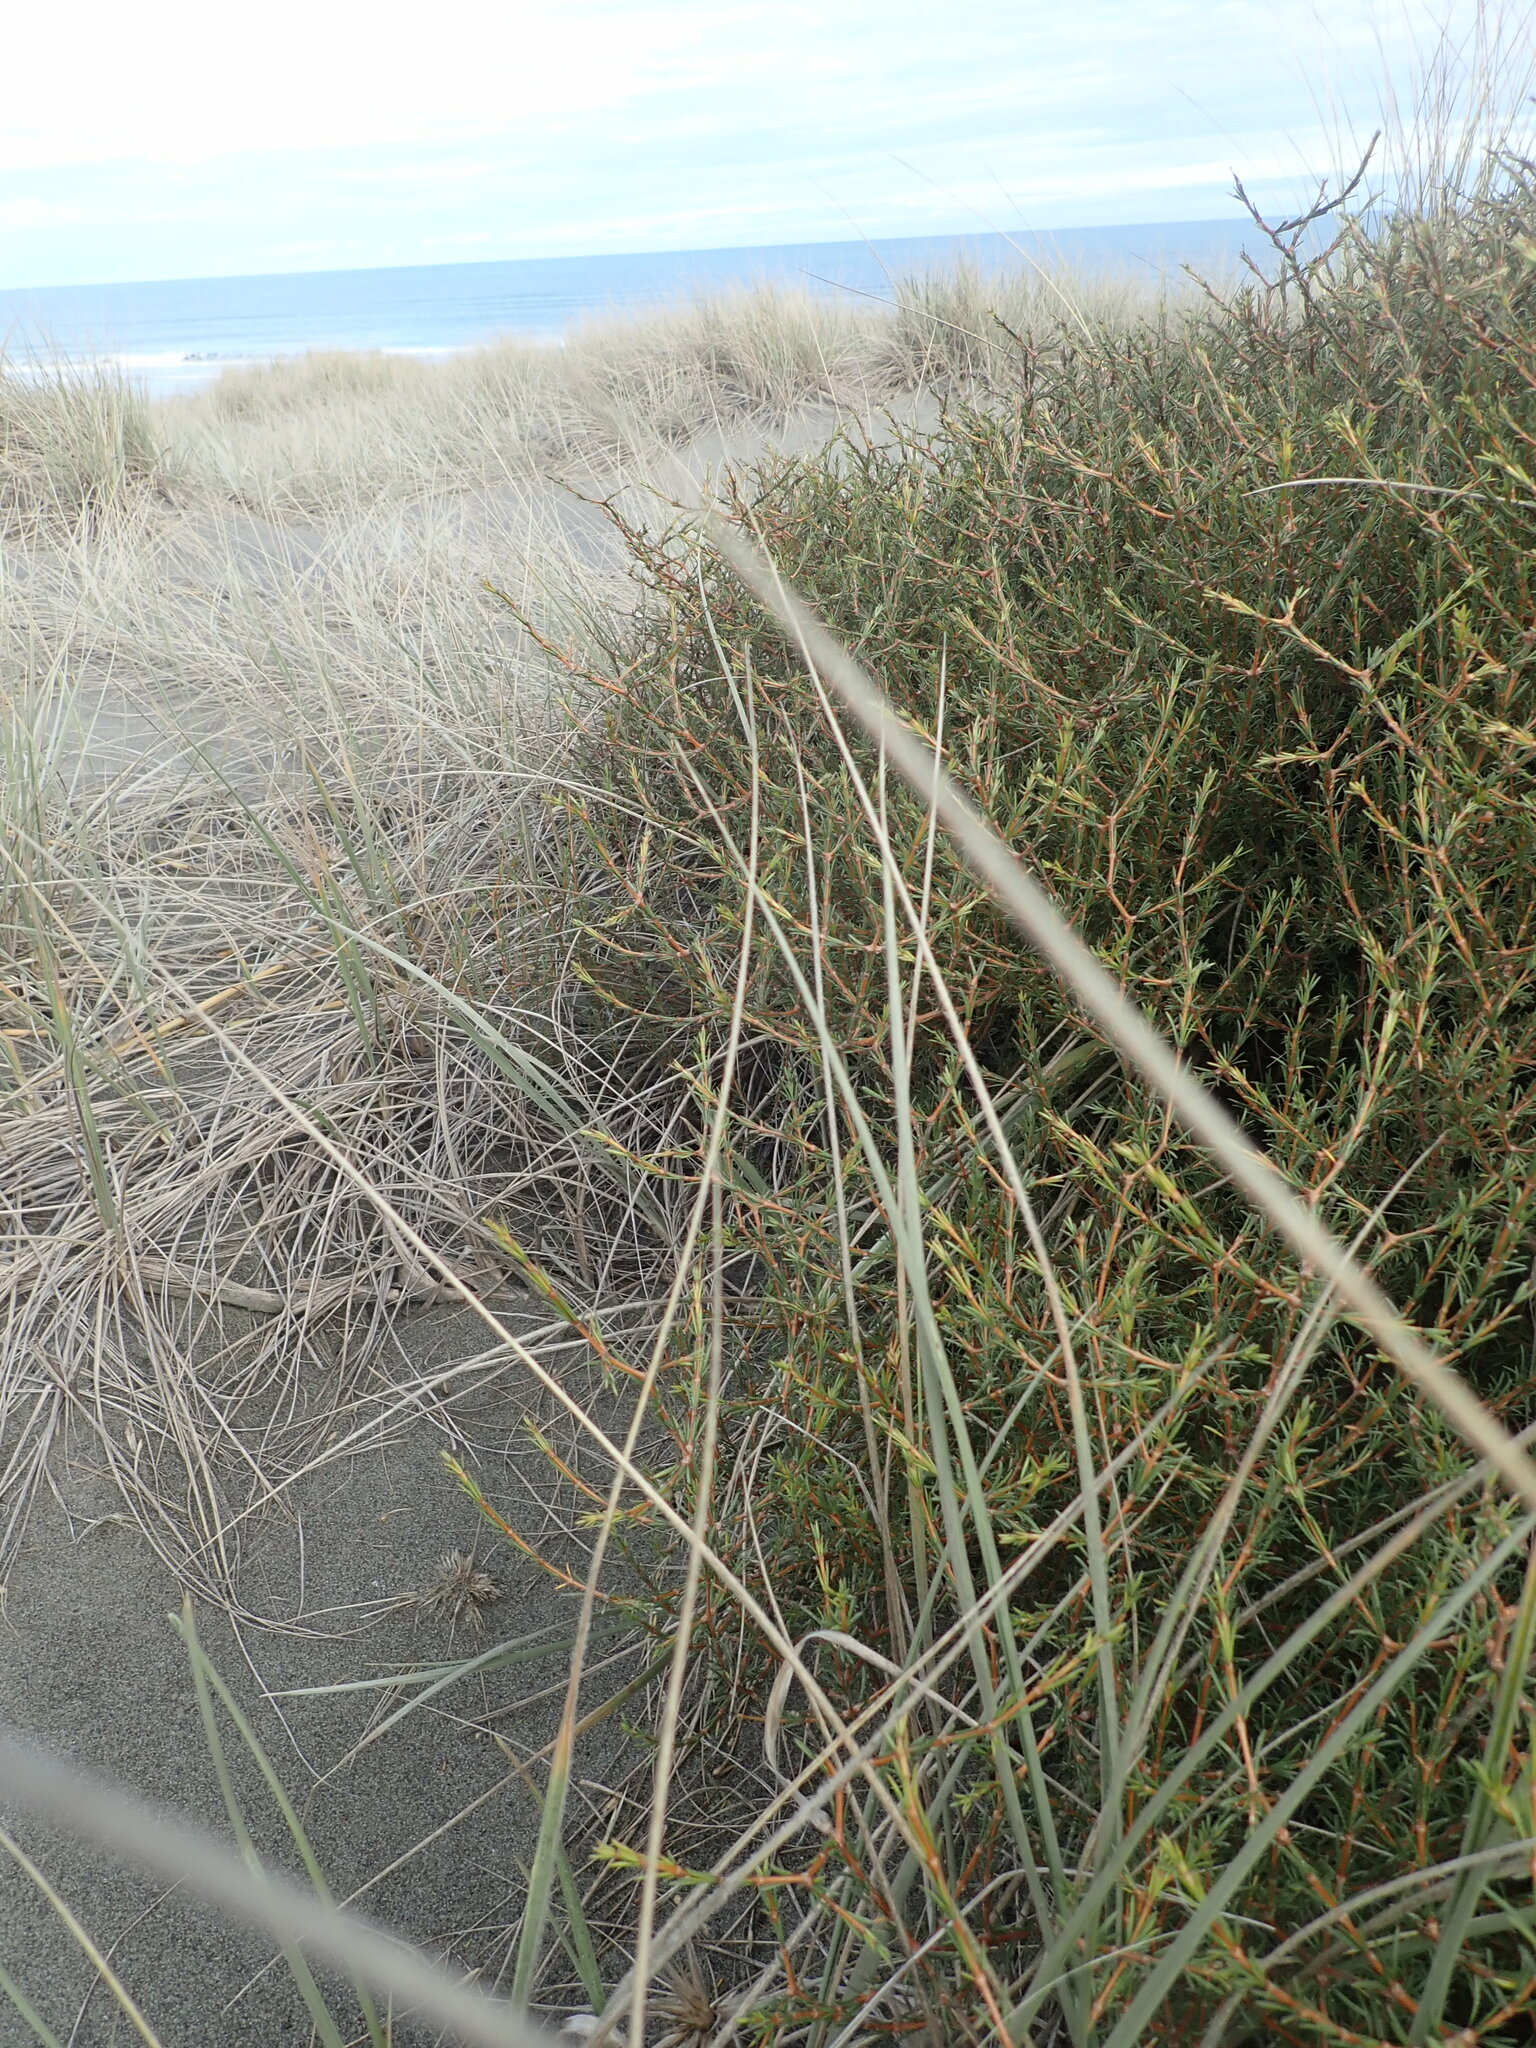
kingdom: Plantae
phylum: Tracheophyta
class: Magnoliopsida
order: Gentianales
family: Rubiaceae
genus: Coprosma
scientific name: Coprosma acerosa
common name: Sand coprosma
